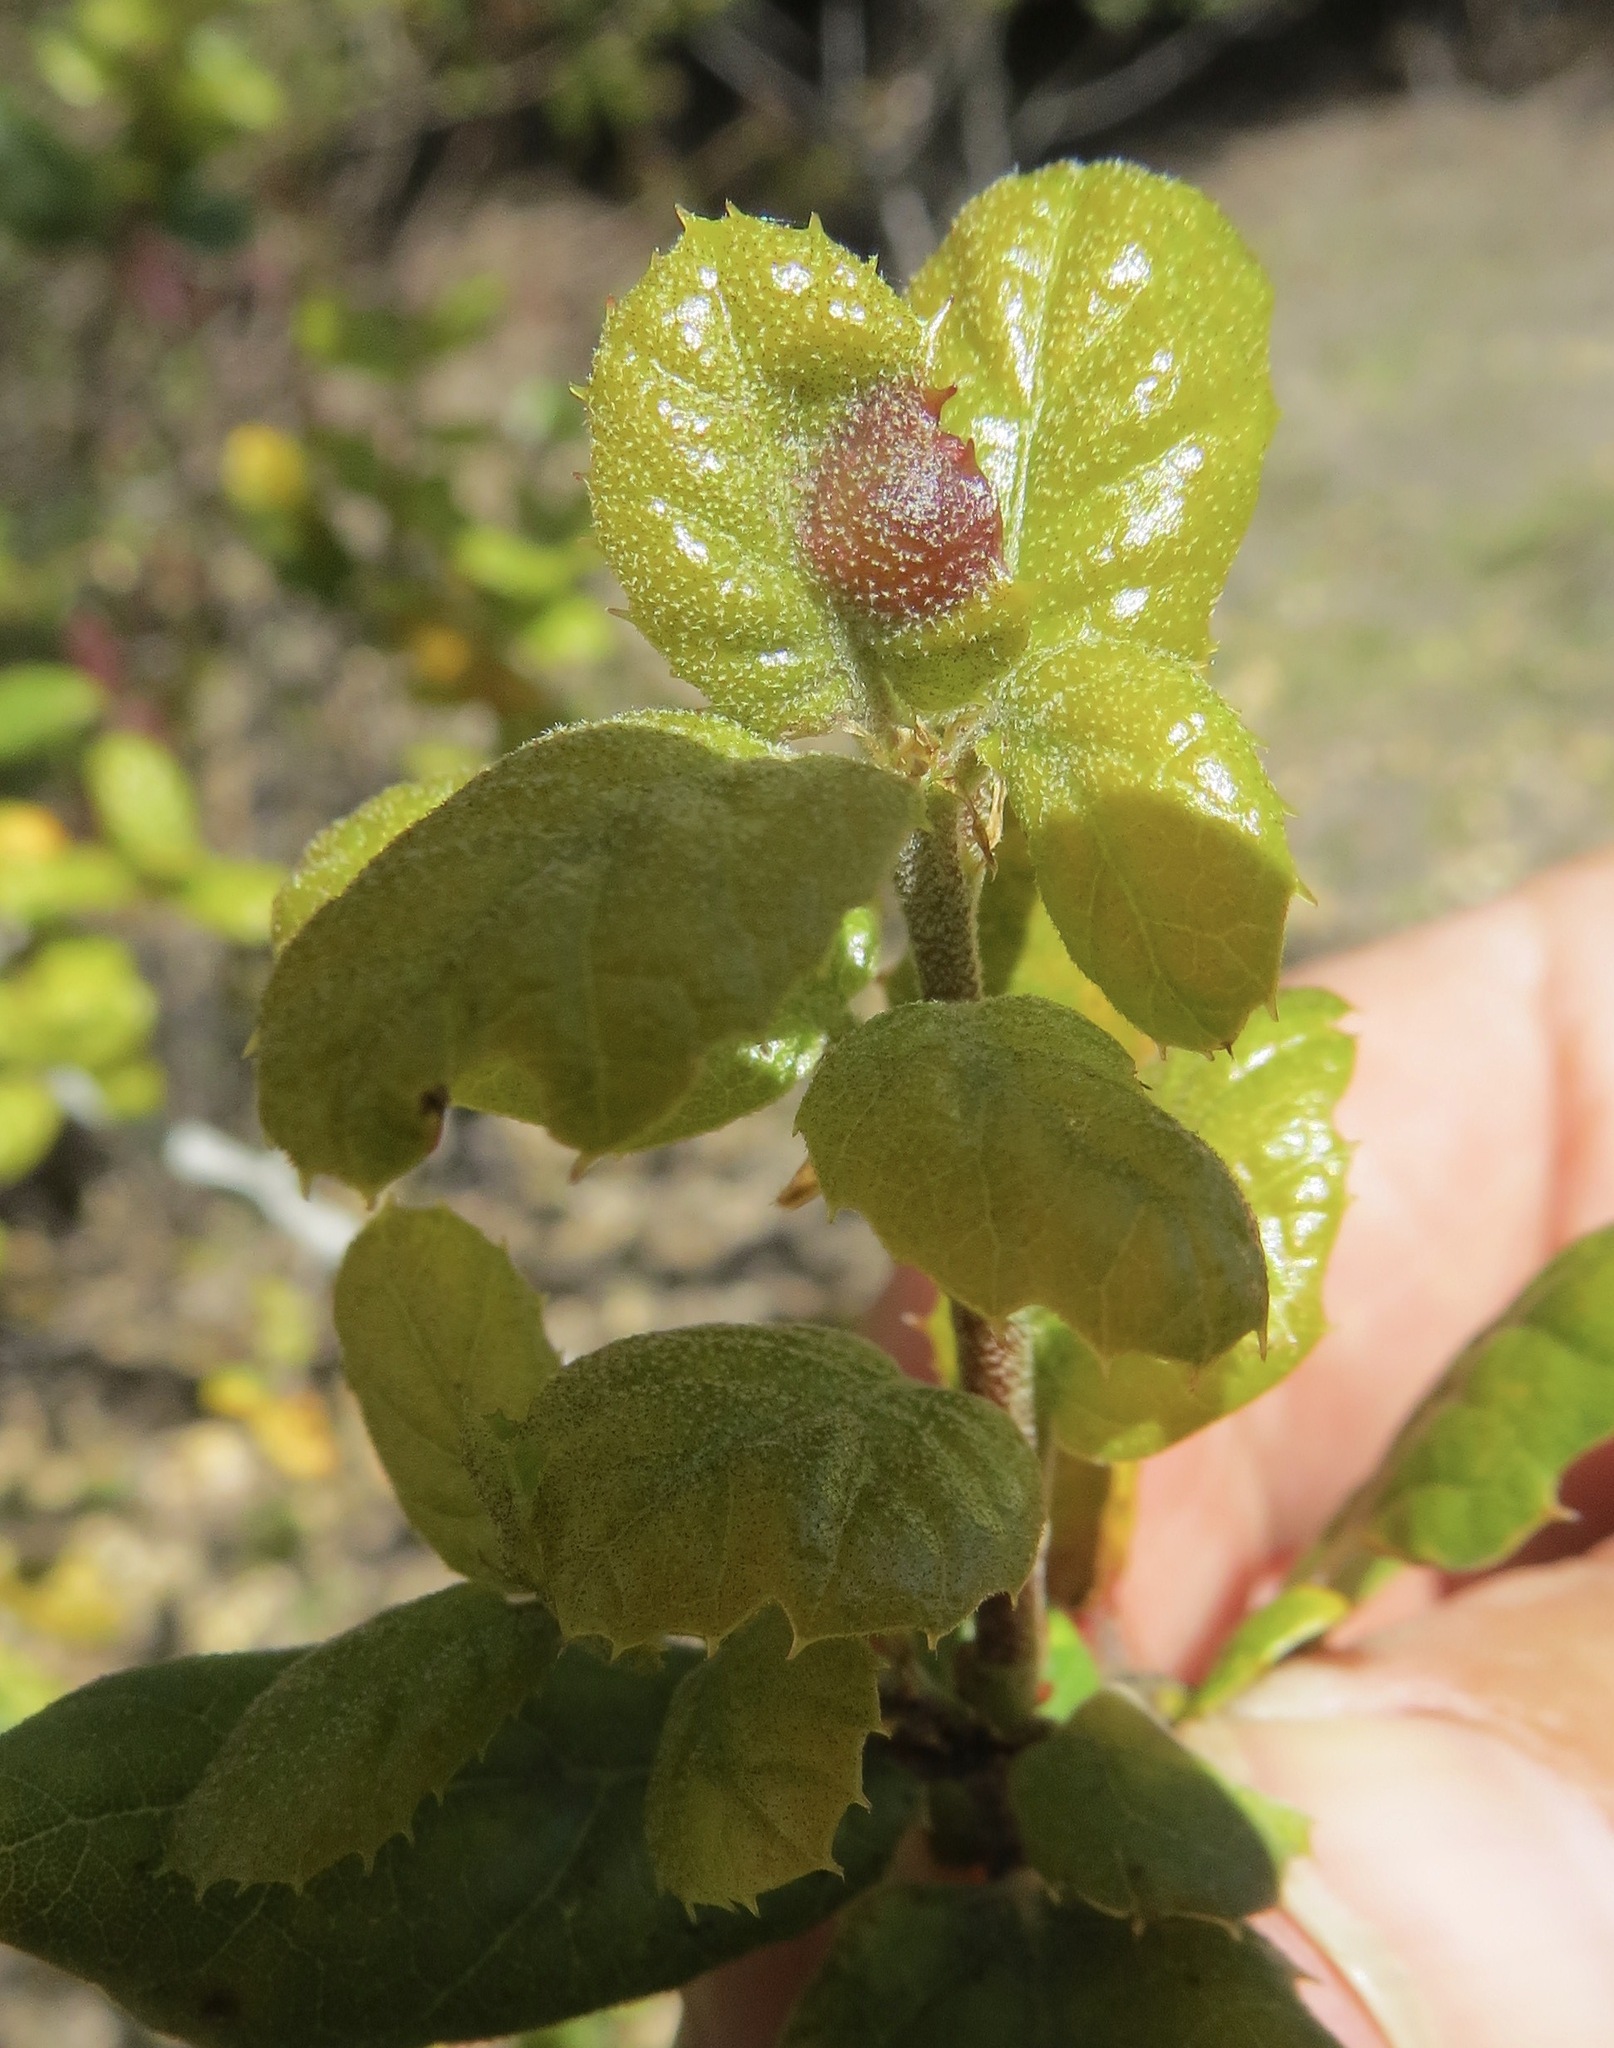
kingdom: Animalia
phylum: Arthropoda
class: Insecta
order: Hymenoptera
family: Cynipidae
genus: Callirhytis
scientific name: Callirhytis
